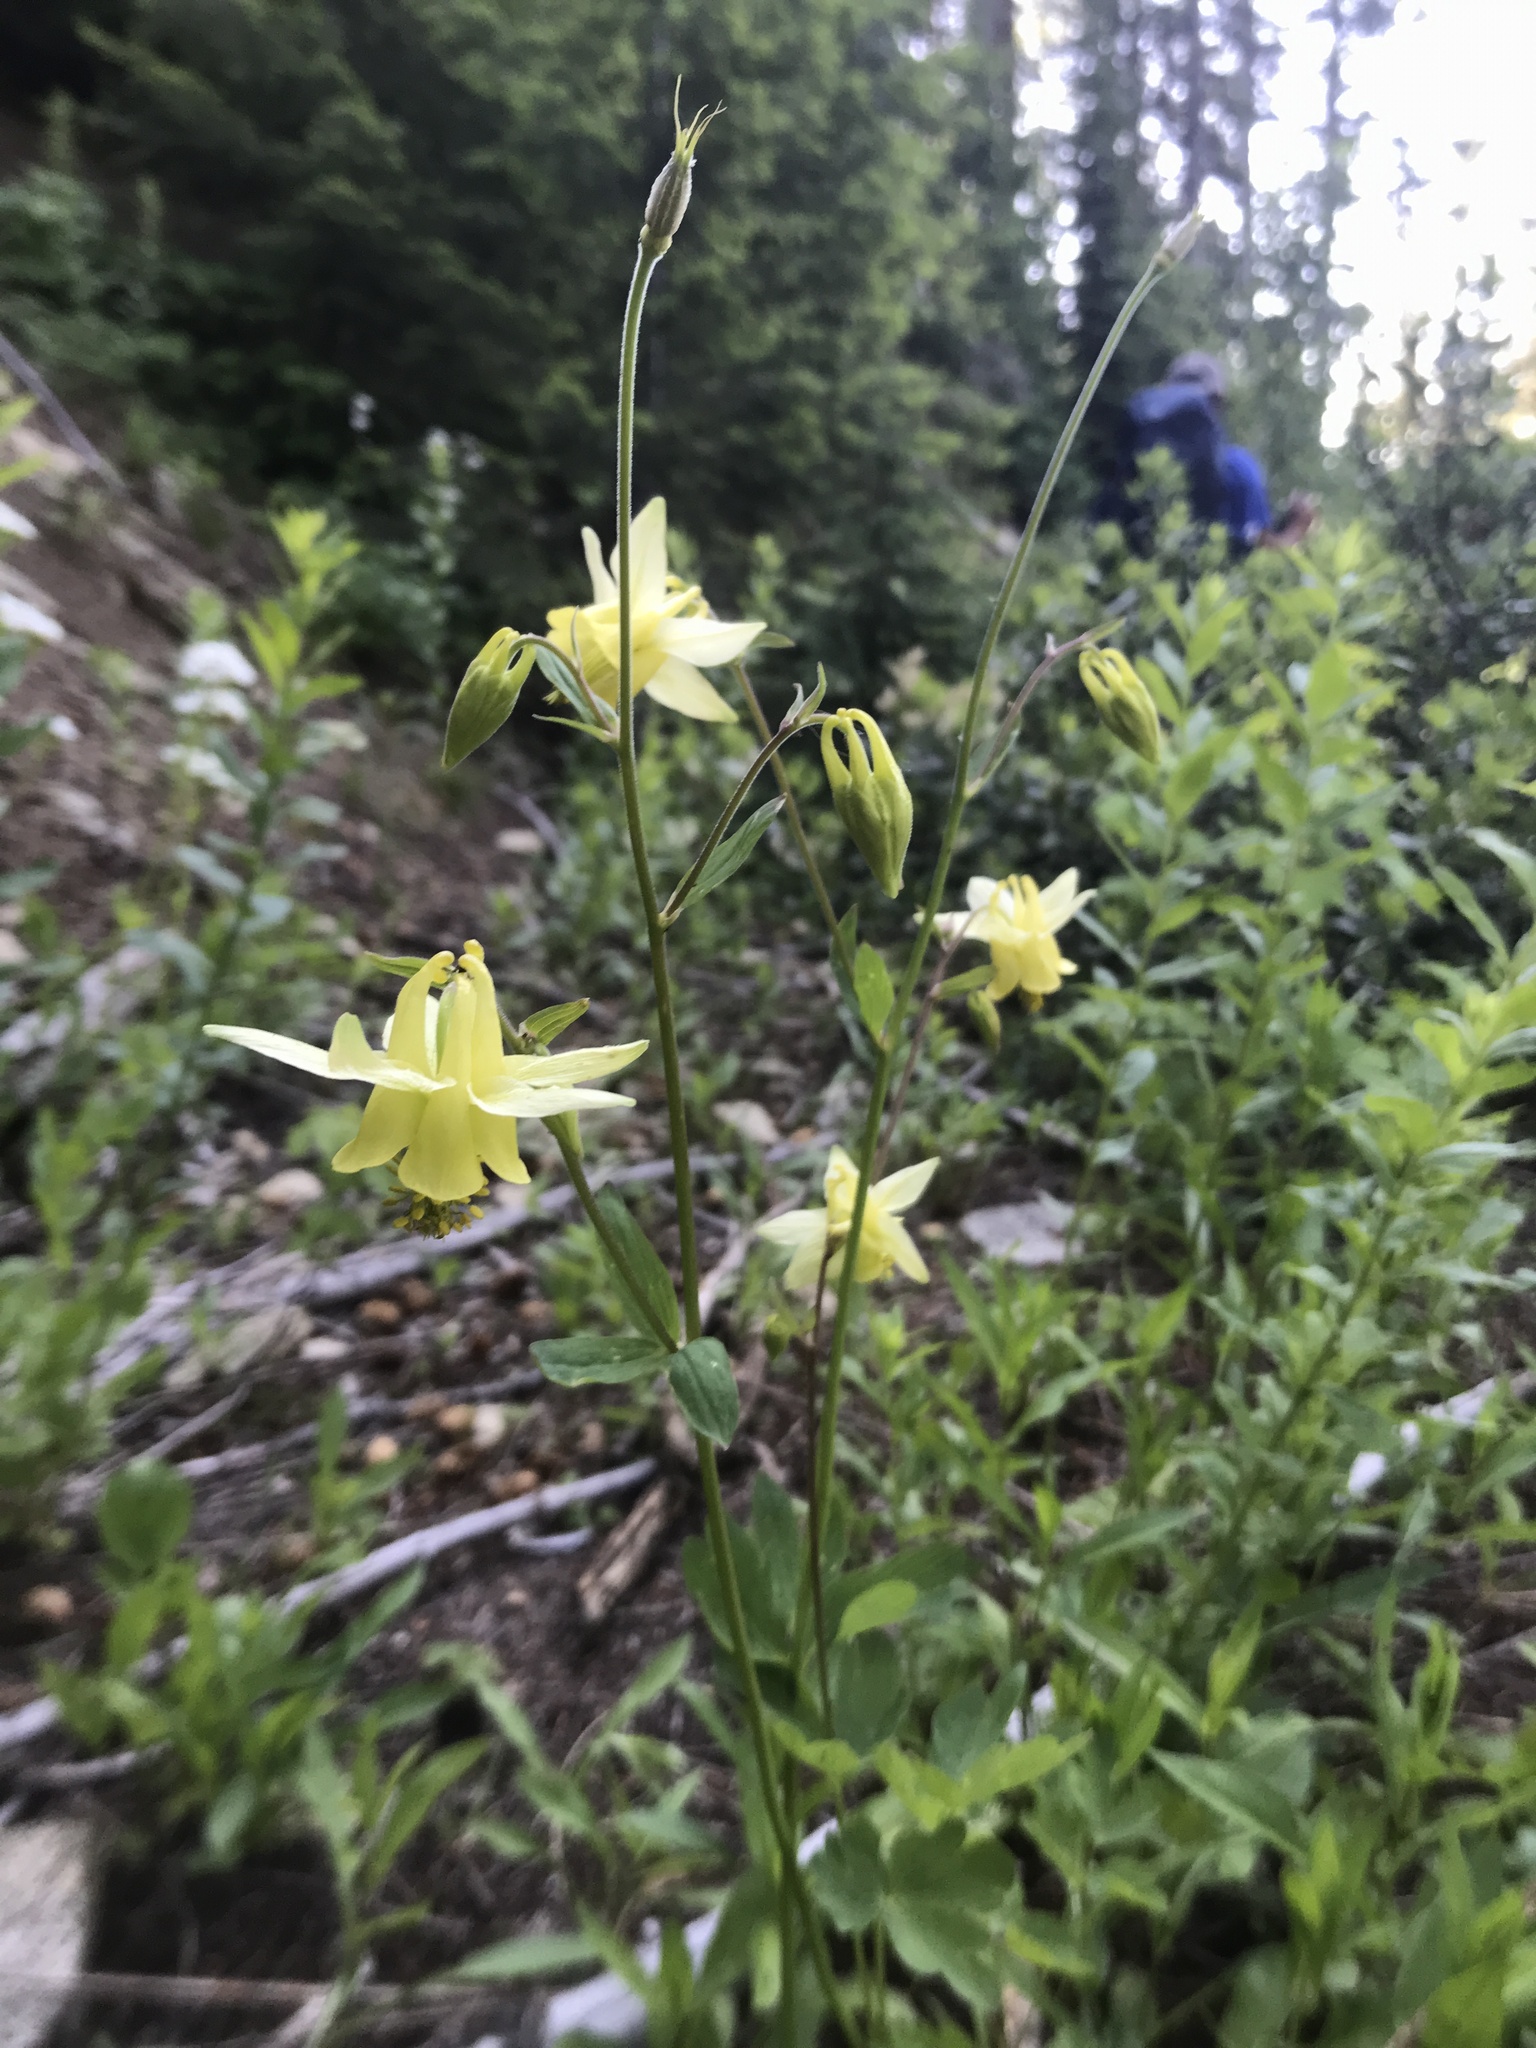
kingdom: Plantae
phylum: Tracheophyta
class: Magnoliopsida
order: Ranunculales
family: Ranunculaceae
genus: Aquilegia
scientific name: Aquilegia flavescens
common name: Yellow columbine
